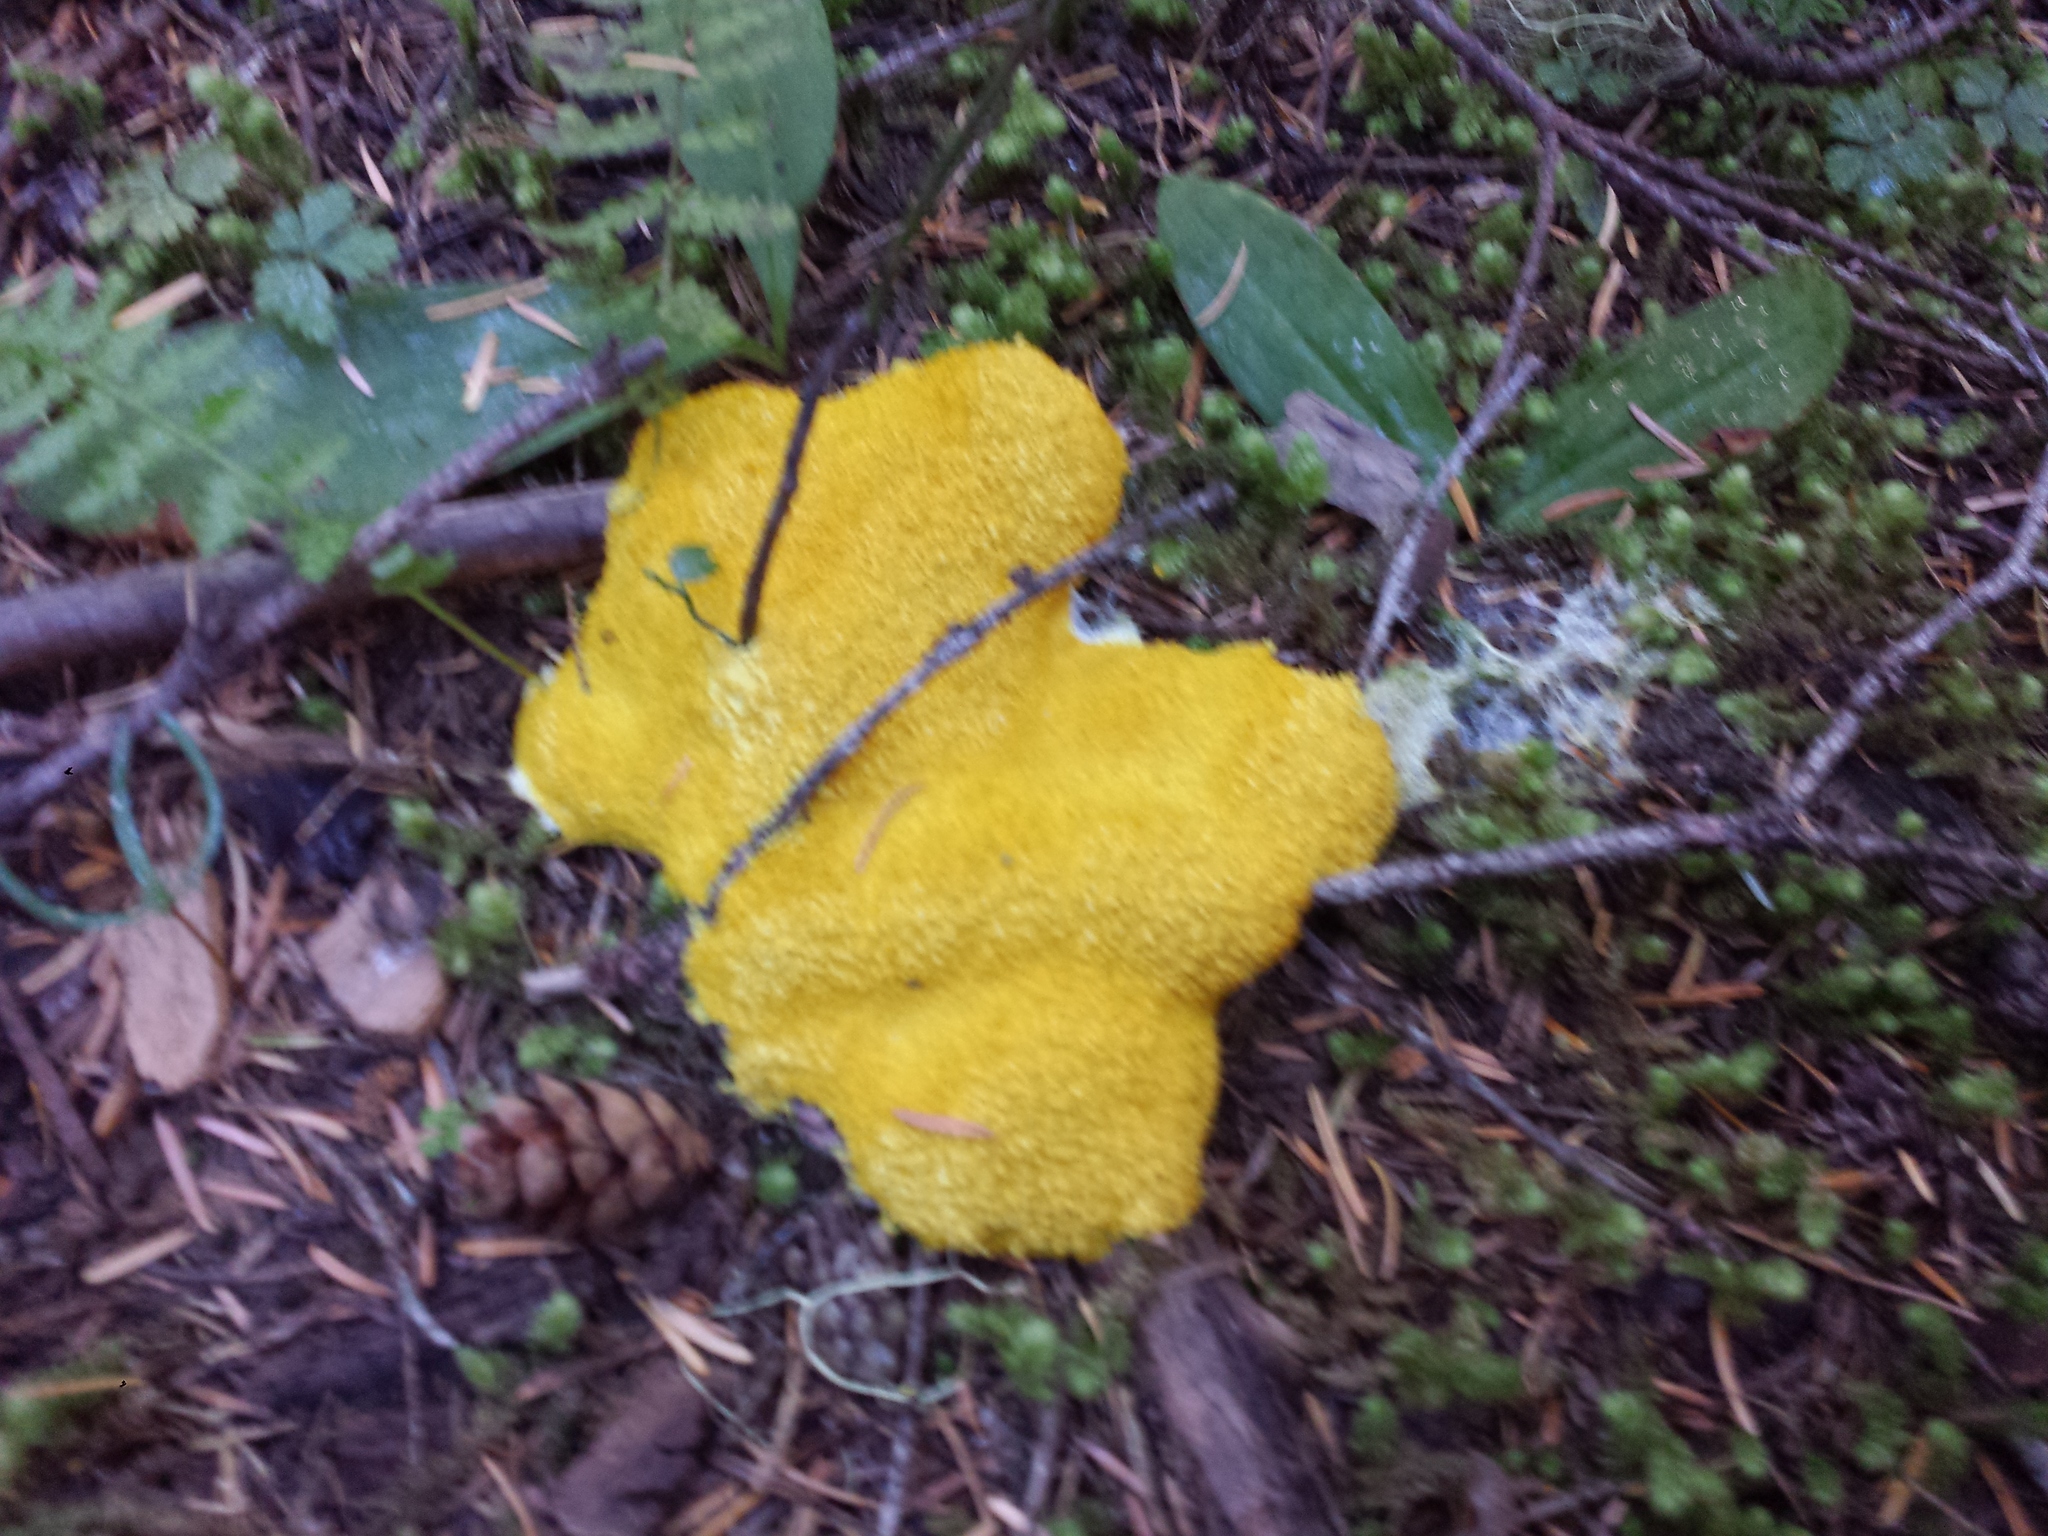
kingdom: Protozoa
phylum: Mycetozoa
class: Myxomycetes
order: Physarales
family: Physaraceae
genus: Fuligo
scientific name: Fuligo septica
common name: Dog vomit slime mold
